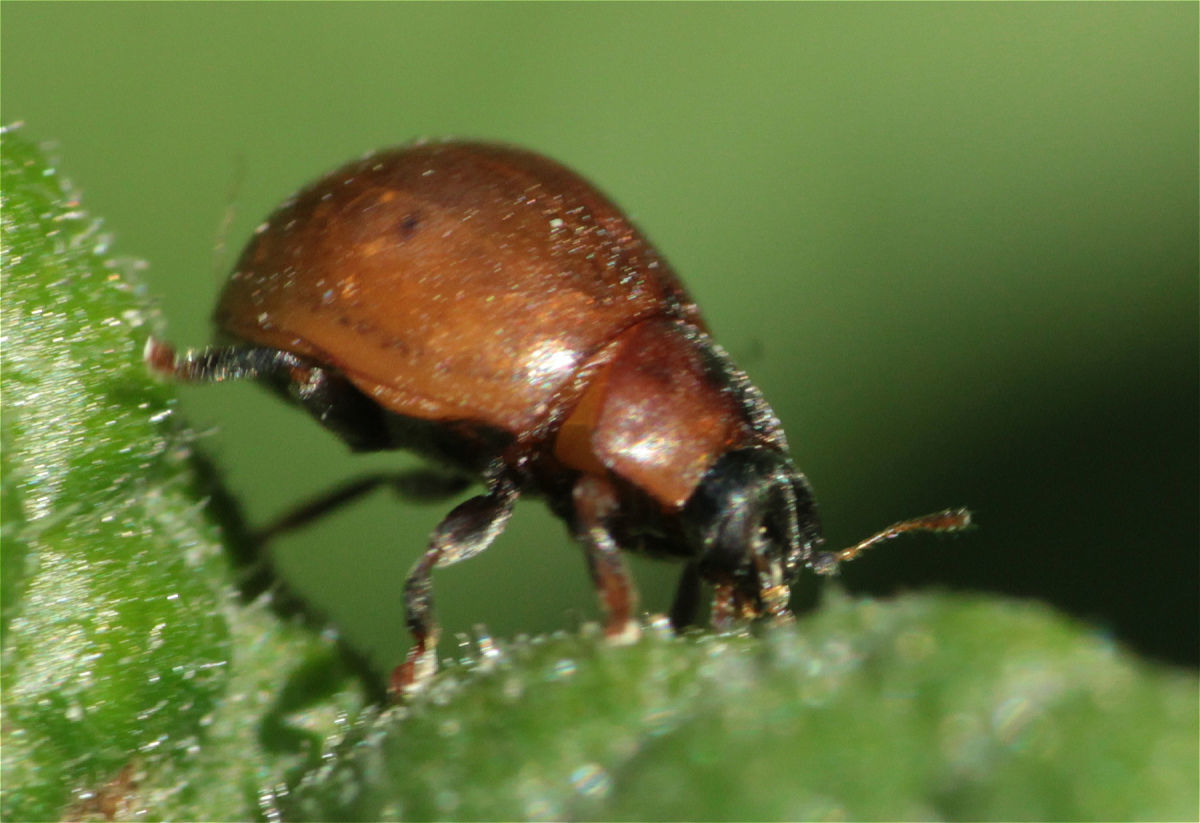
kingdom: Animalia
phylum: Arthropoda
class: Insecta
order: Coleoptera
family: Coccinellidae
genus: Cynegetis
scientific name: Cynegetis impunctata
